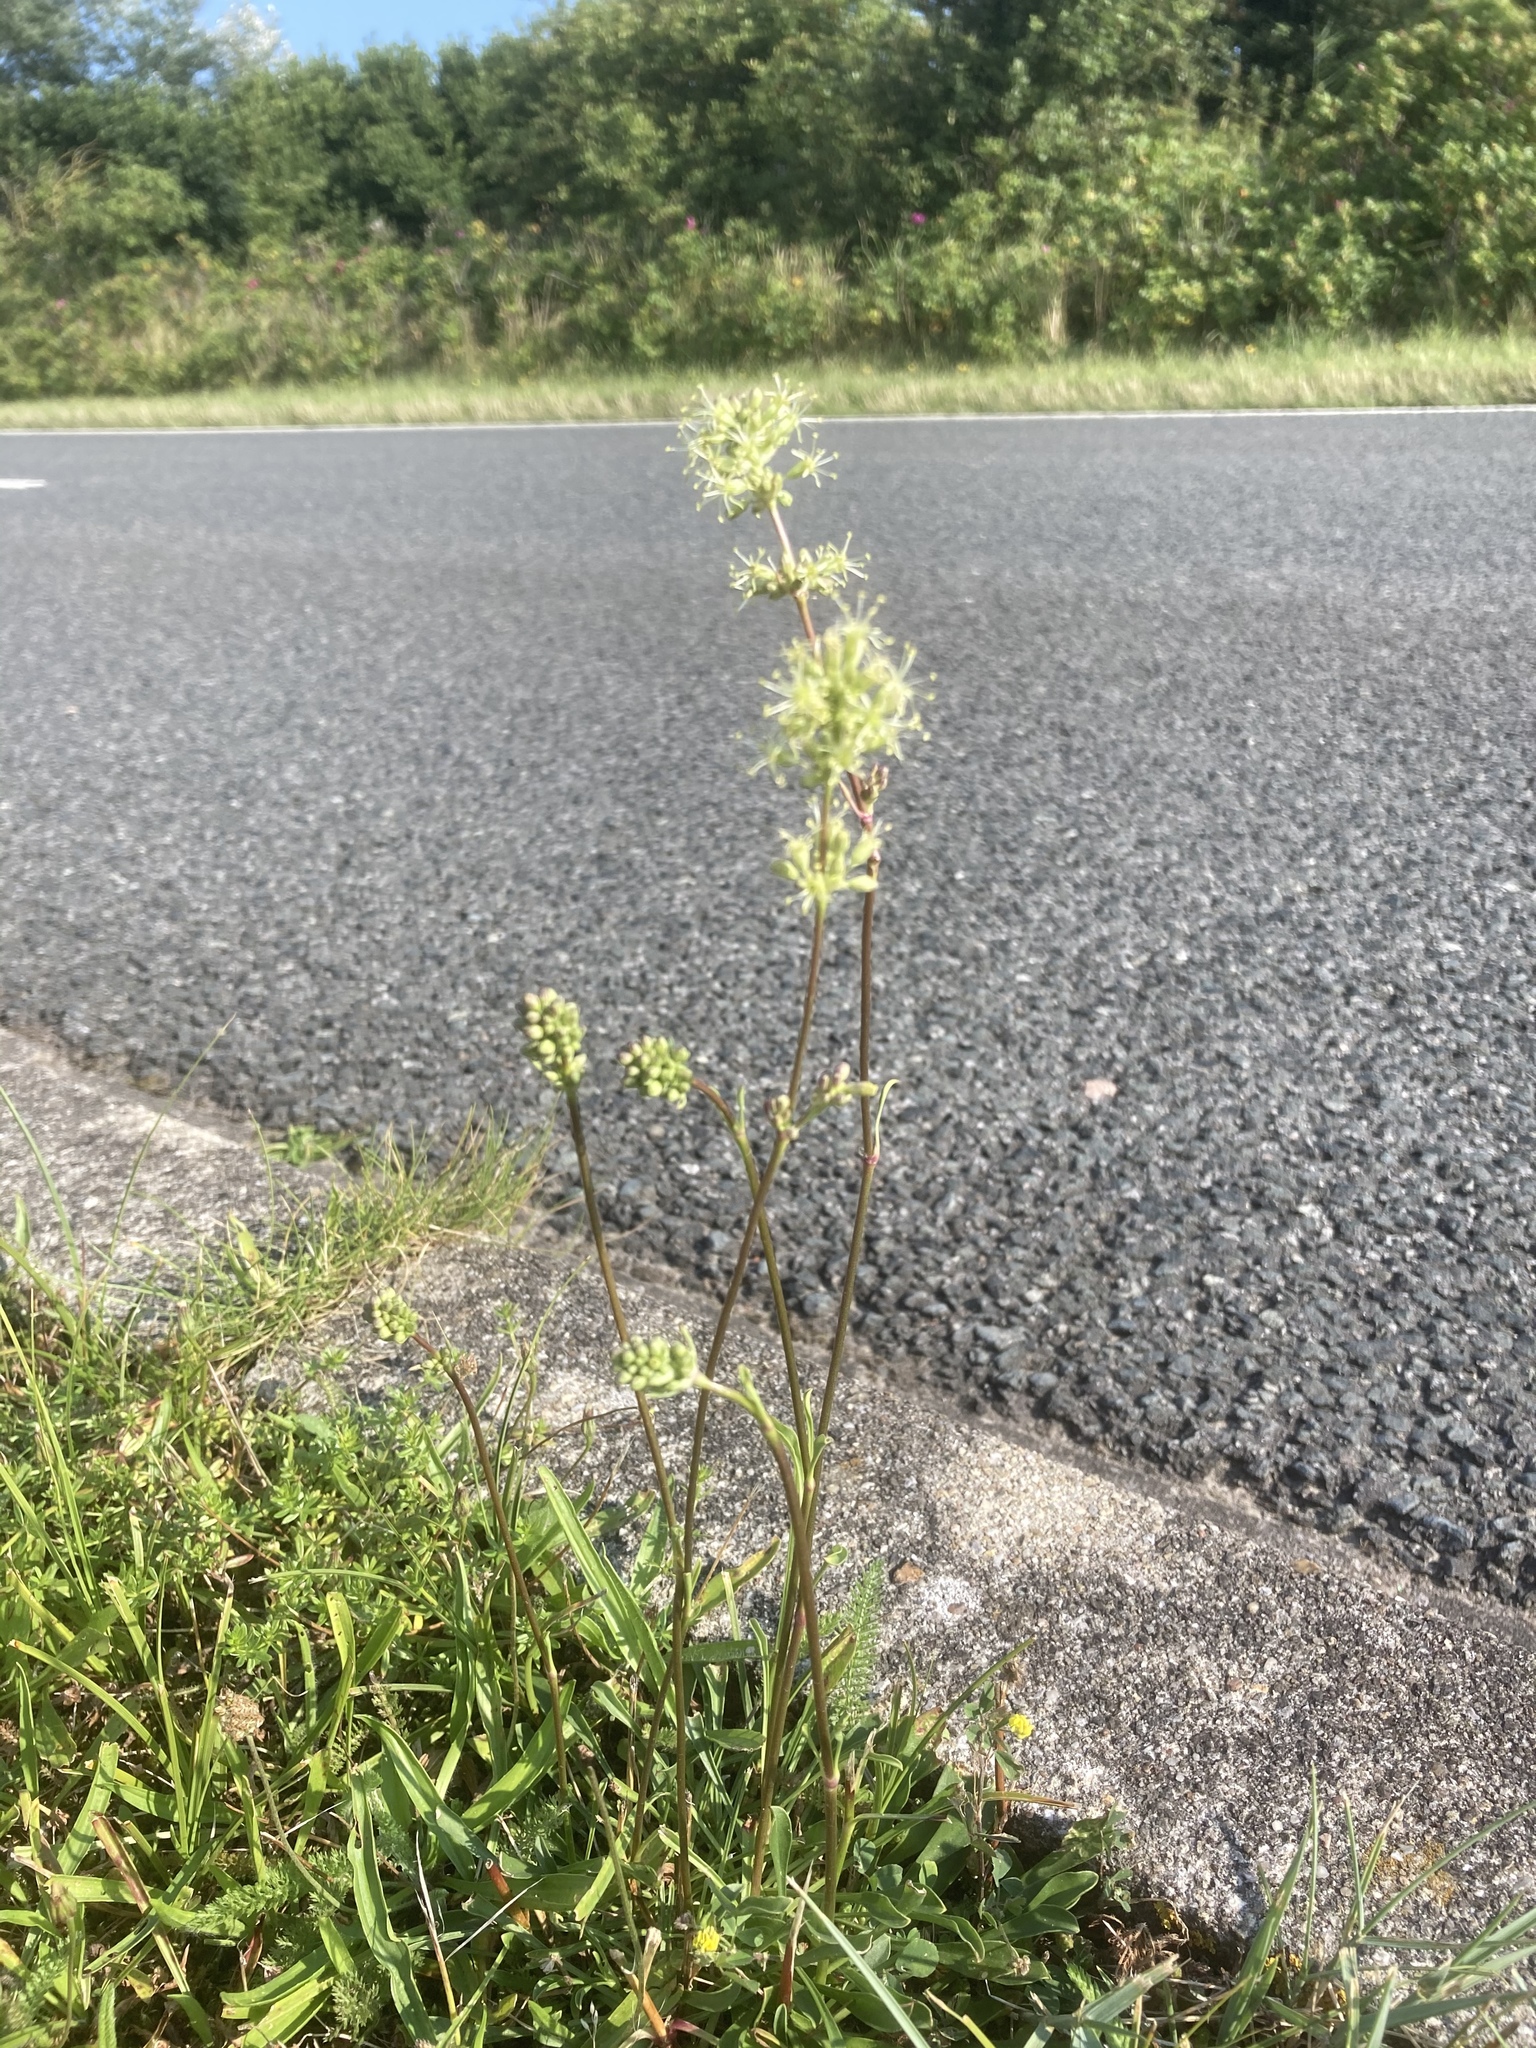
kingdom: Plantae
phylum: Tracheophyta
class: Magnoliopsida
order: Caryophyllales
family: Caryophyllaceae
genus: Silene
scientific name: Silene otites
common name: Spanish catchfly
